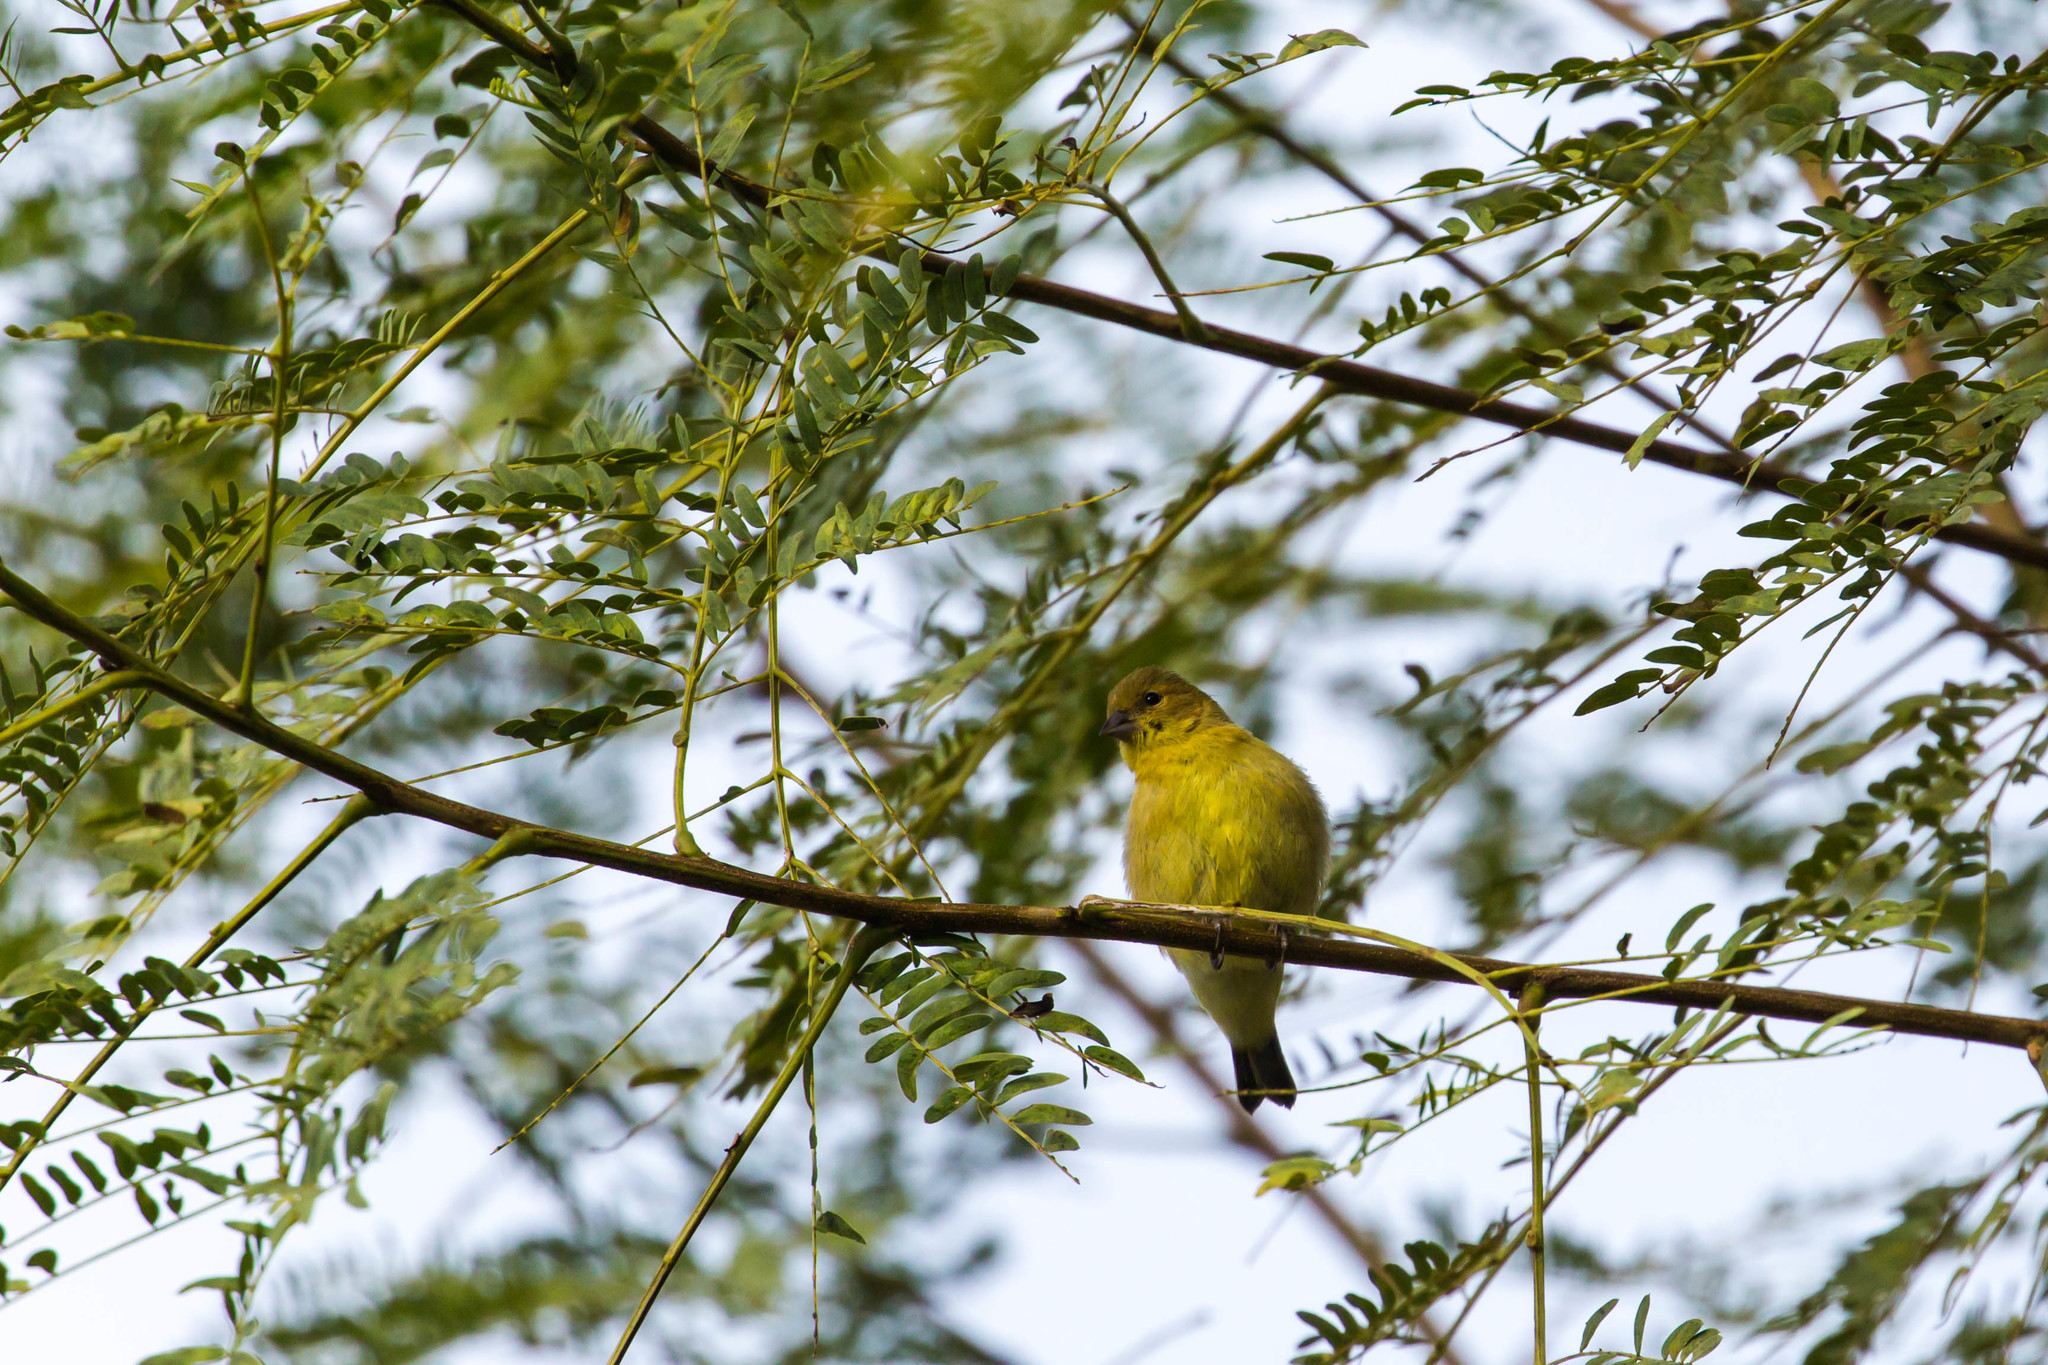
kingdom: Animalia
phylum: Chordata
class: Aves
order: Passeriformes
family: Fringillidae
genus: Spinus
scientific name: Spinus psaltria
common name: Lesser goldfinch
